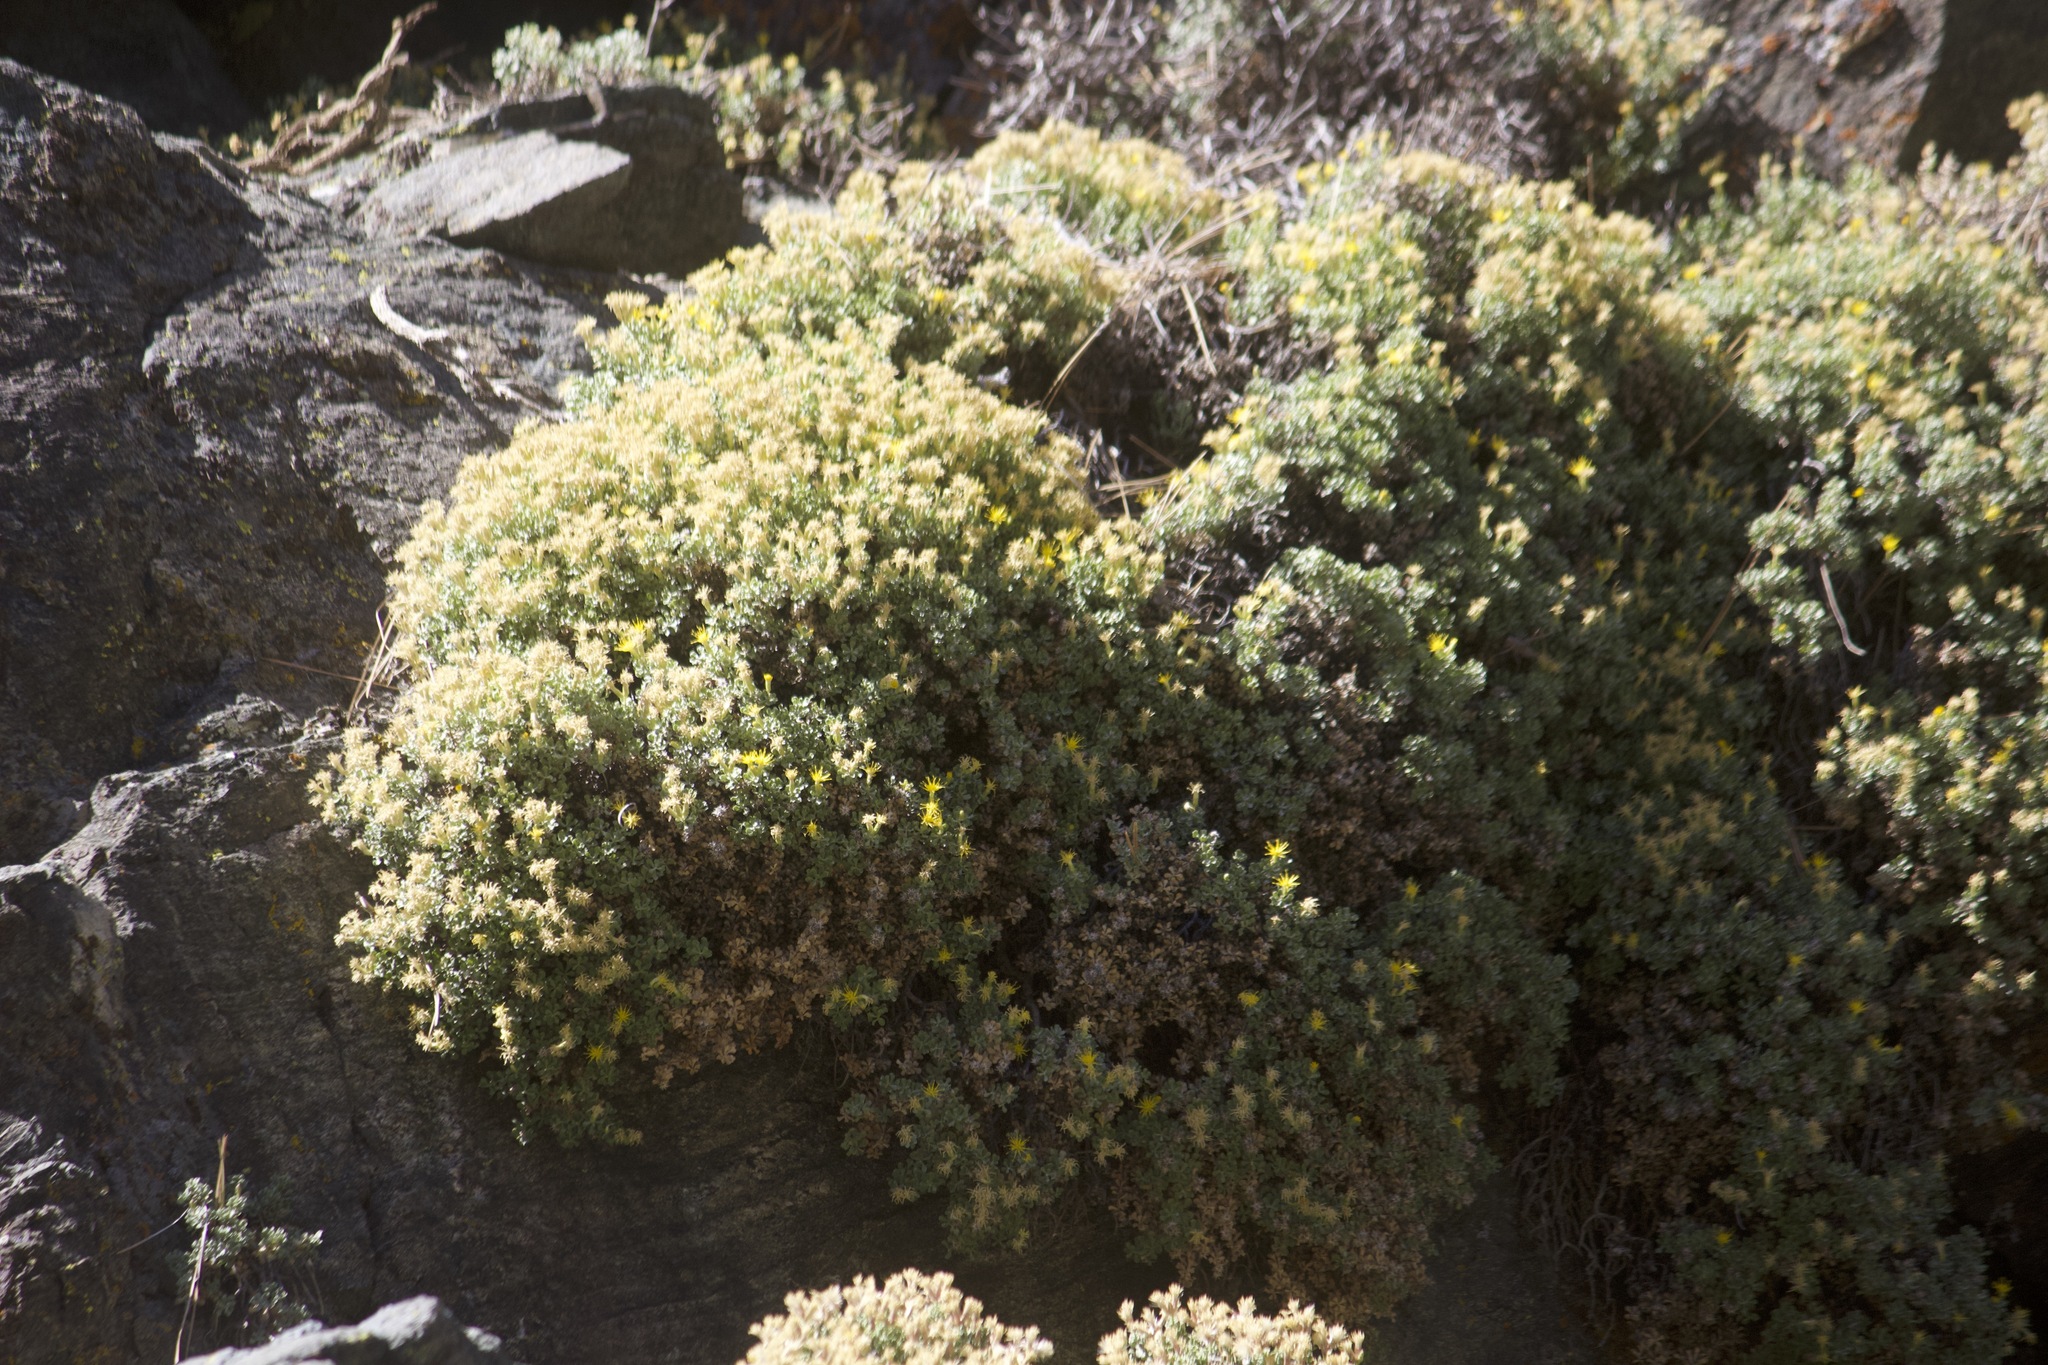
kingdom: Plantae
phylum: Tracheophyta
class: Magnoliopsida
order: Asterales
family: Asteraceae
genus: Ericameria
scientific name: Ericameria cuneata
